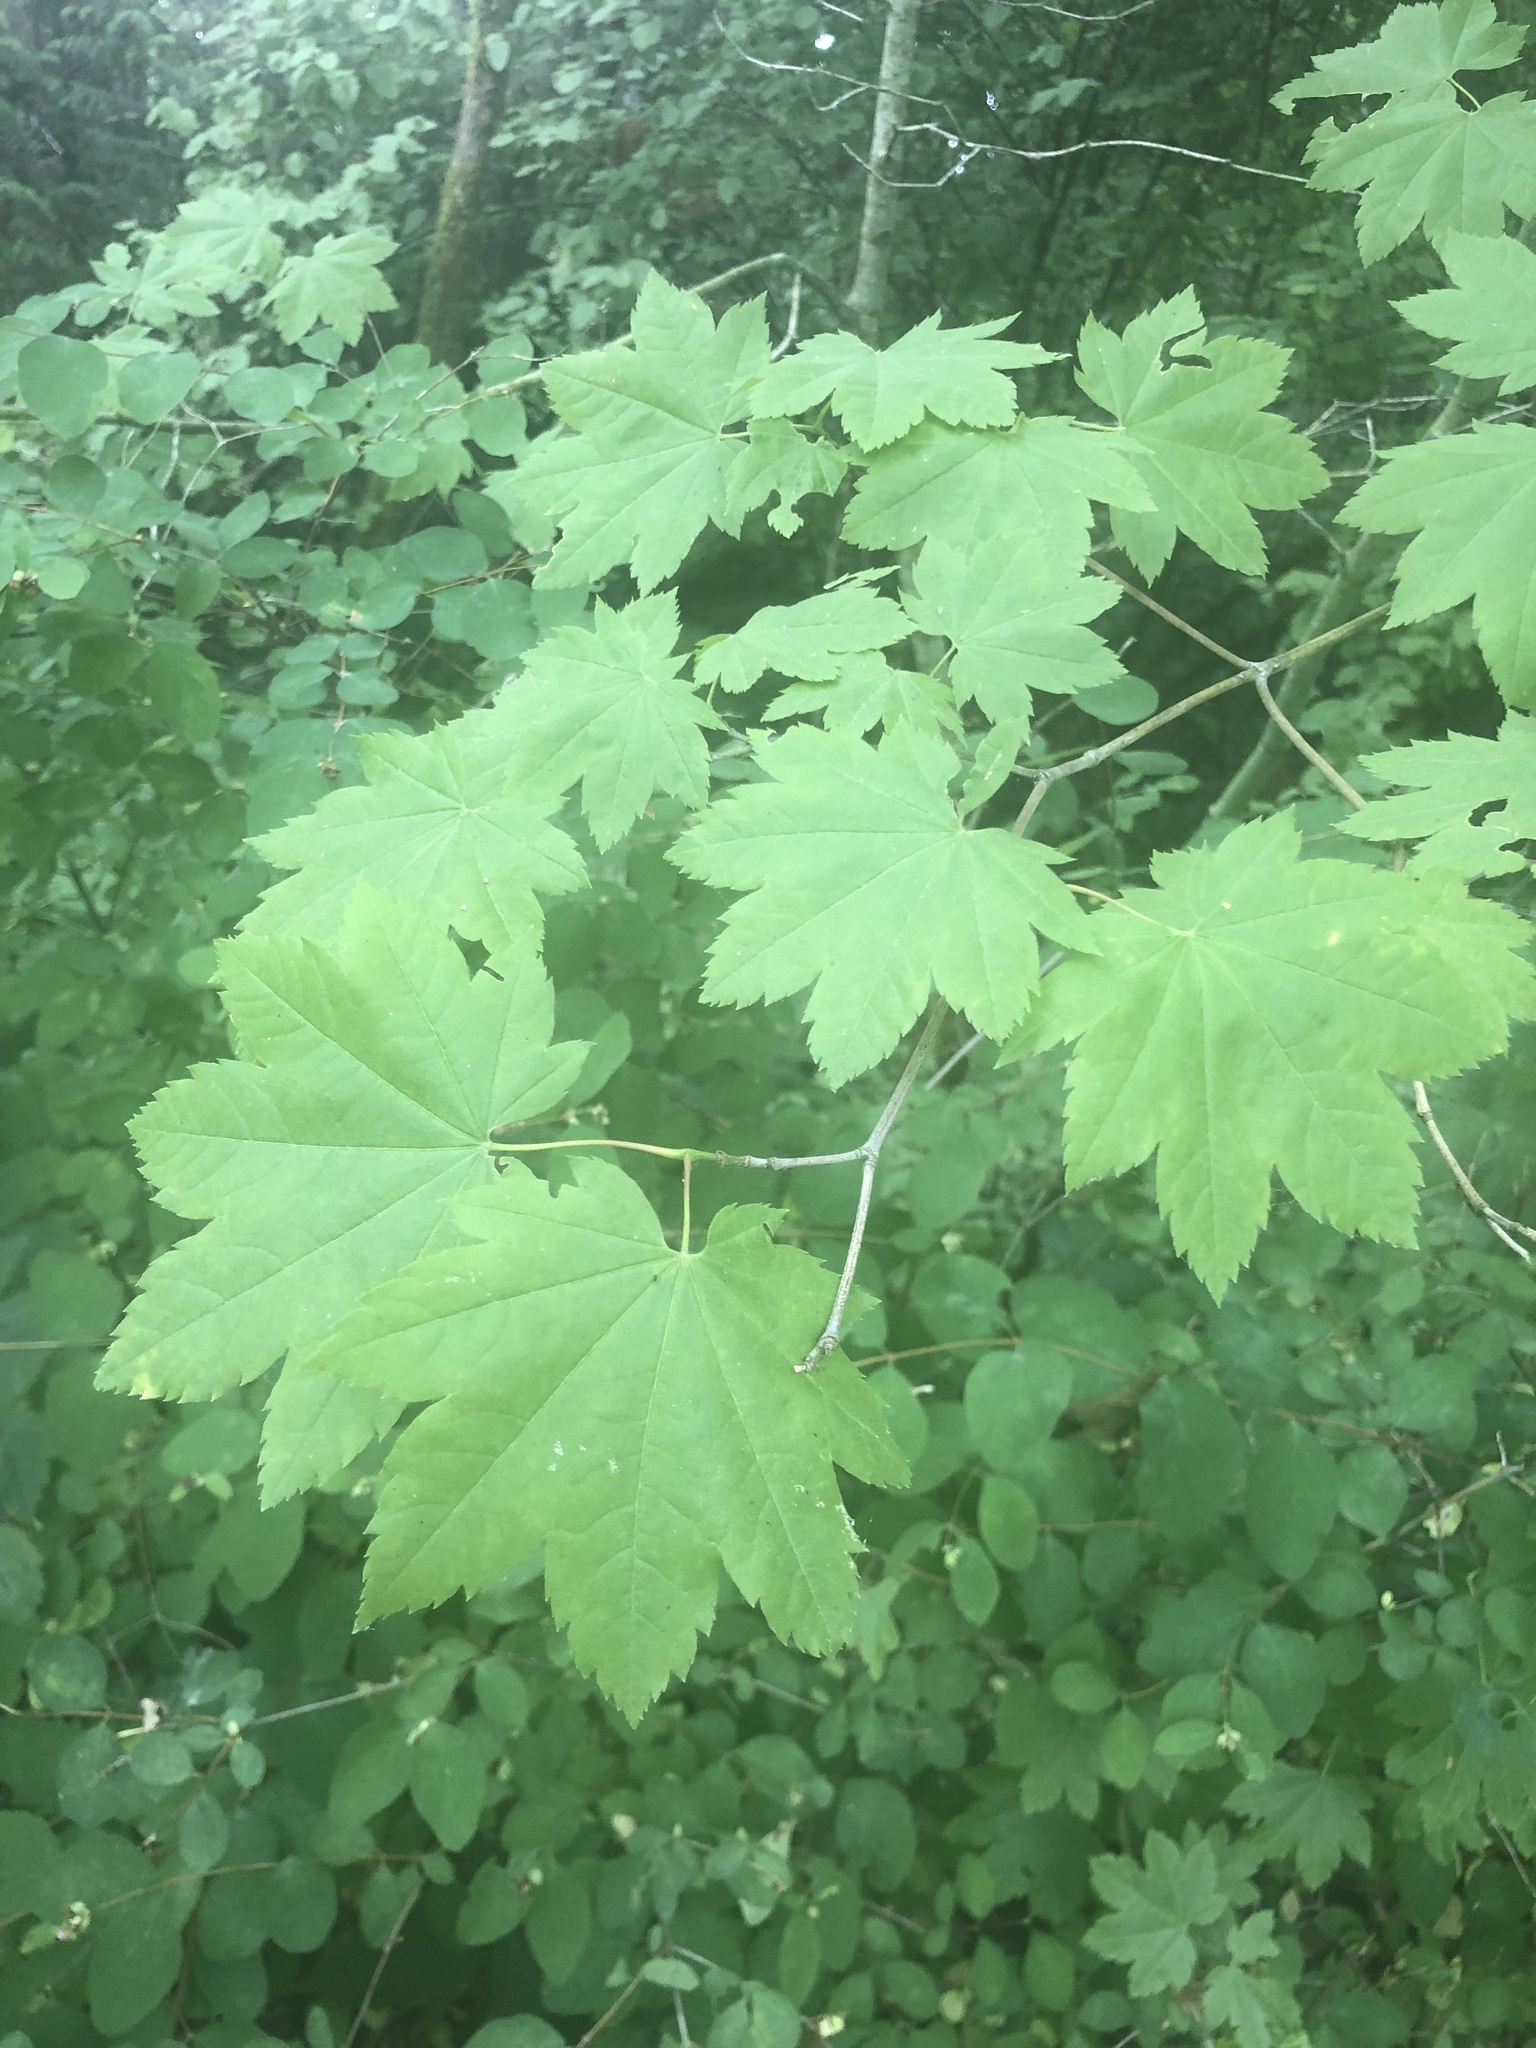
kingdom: Plantae
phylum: Tracheophyta
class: Magnoliopsida
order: Sapindales
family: Sapindaceae
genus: Acer
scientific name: Acer circinatum
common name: Vine maple
